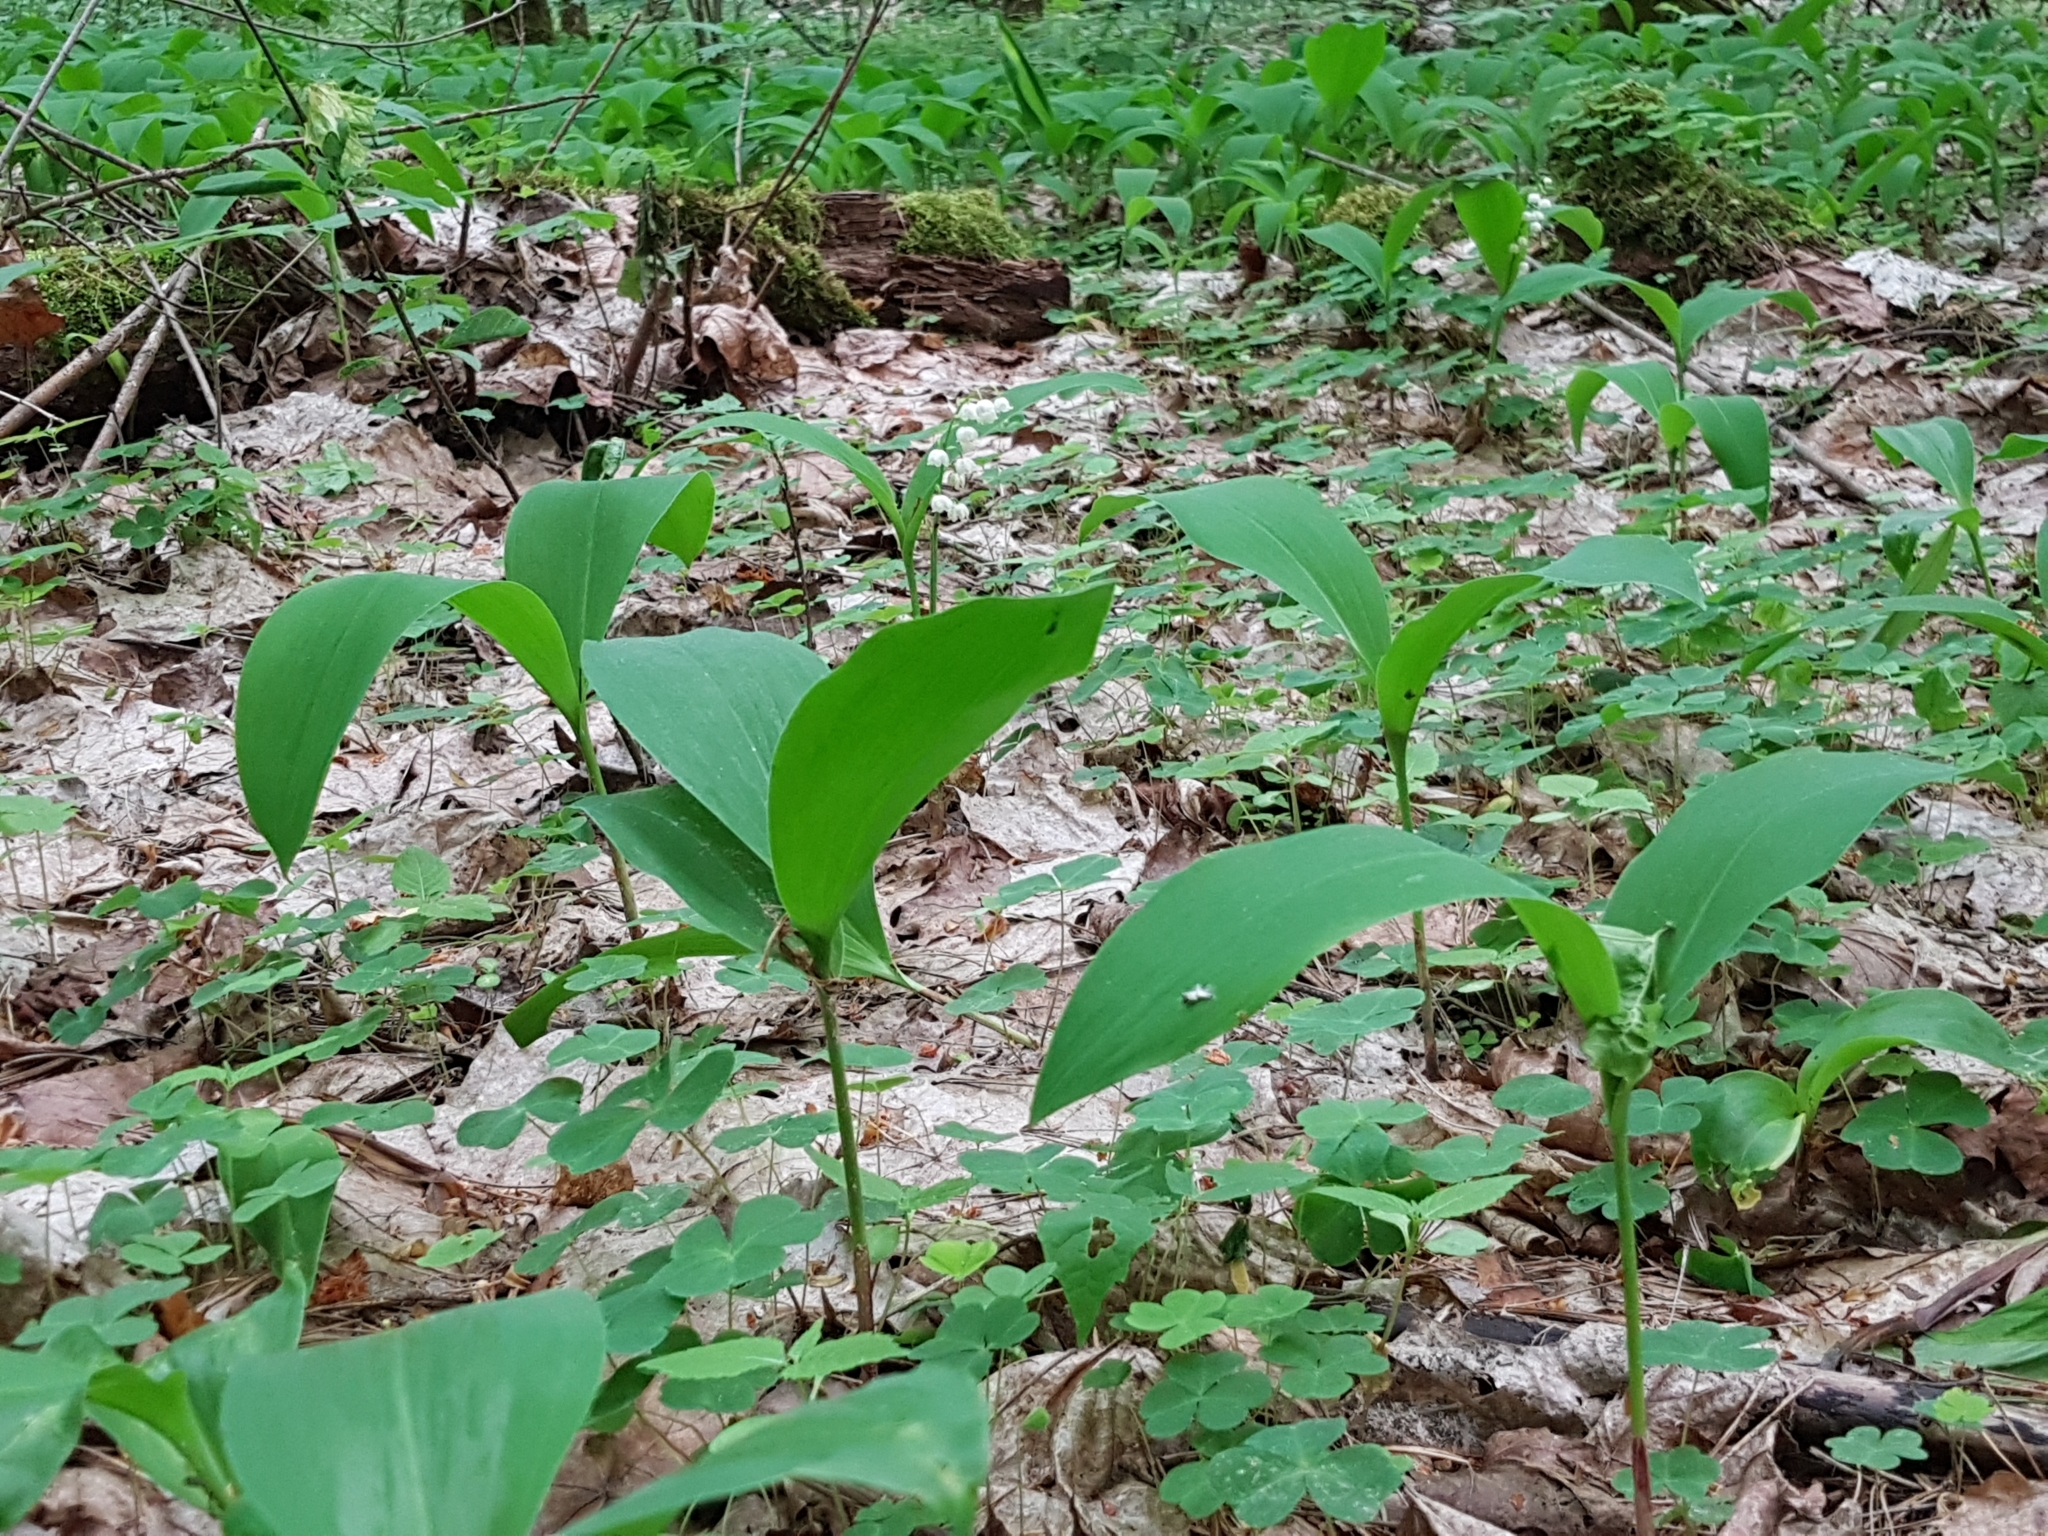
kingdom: Plantae
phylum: Tracheophyta
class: Liliopsida
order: Asparagales
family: Asparagaceae
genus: Convallaria
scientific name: Convallaria majalis
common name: Lily-of-the-valley
